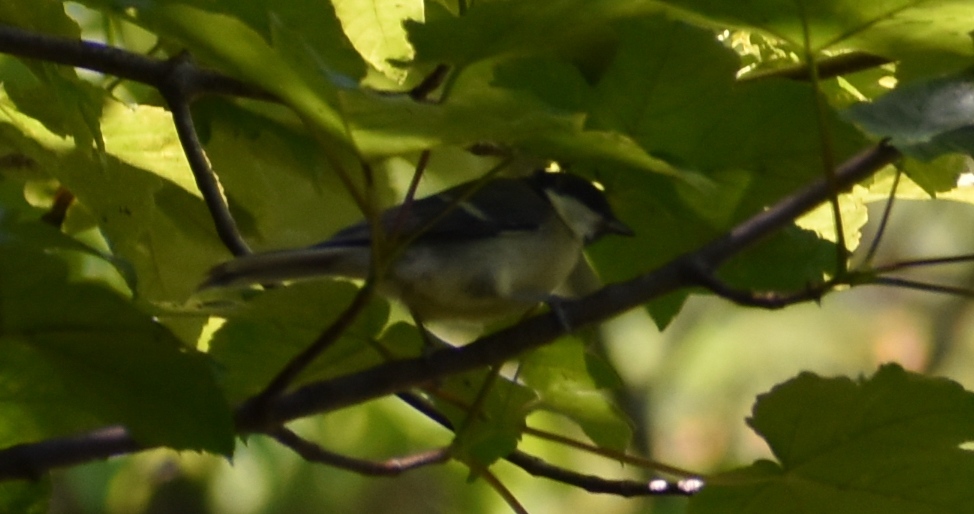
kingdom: Animalia
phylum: Chordata
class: Aves
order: Passeriformes
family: Paridae
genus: Parus
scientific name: Parus major
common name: Great tit
